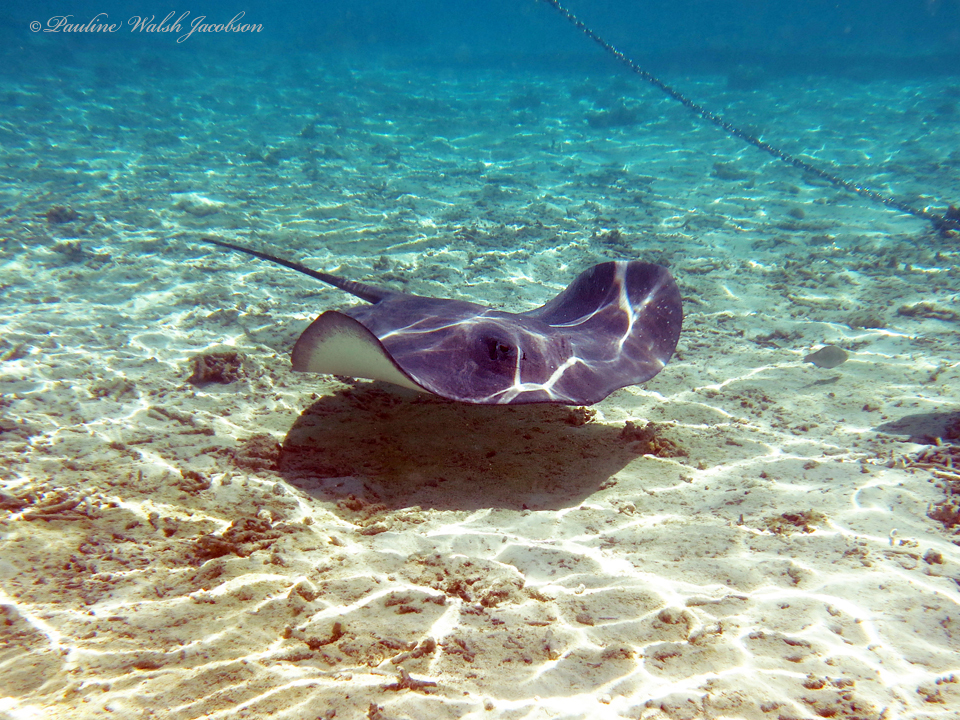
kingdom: Animalia
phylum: Chordata
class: Elasmobranchii
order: Myliobatiformes
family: Dasyatidae
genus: Pateobatis
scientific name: Pateobatis fai
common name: Pink whipray
